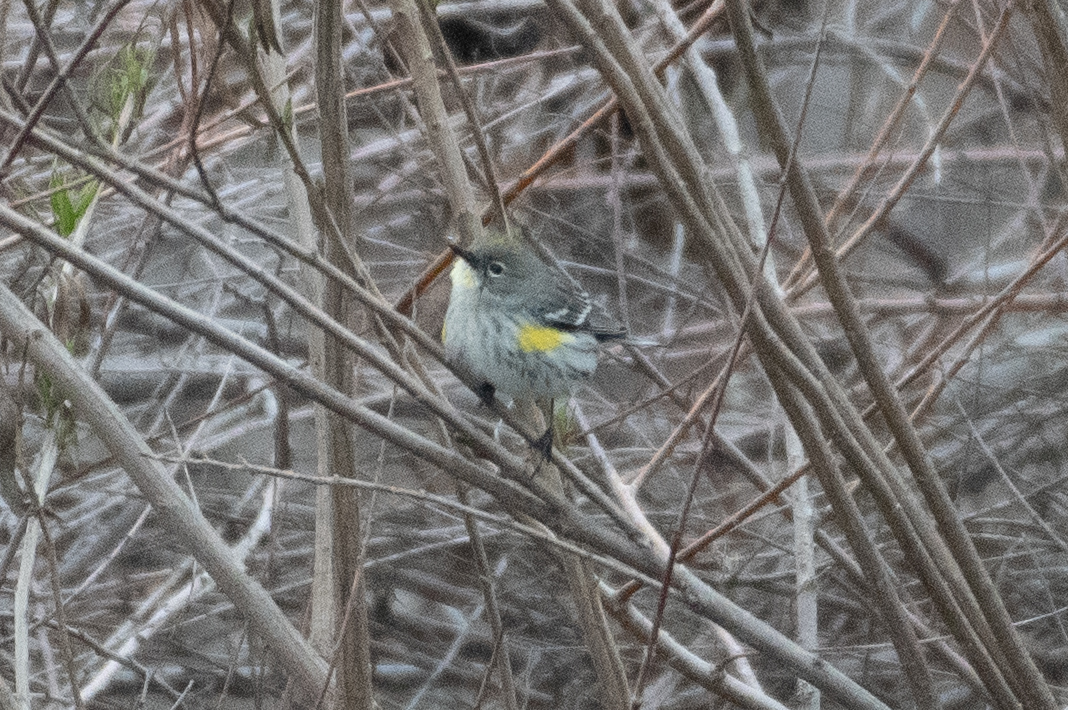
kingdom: Animalia
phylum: Chordata
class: Aves
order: Passeriformes
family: Parulidae
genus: Setophaga
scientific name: Setophaga coronata
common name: Myrtle warbler
